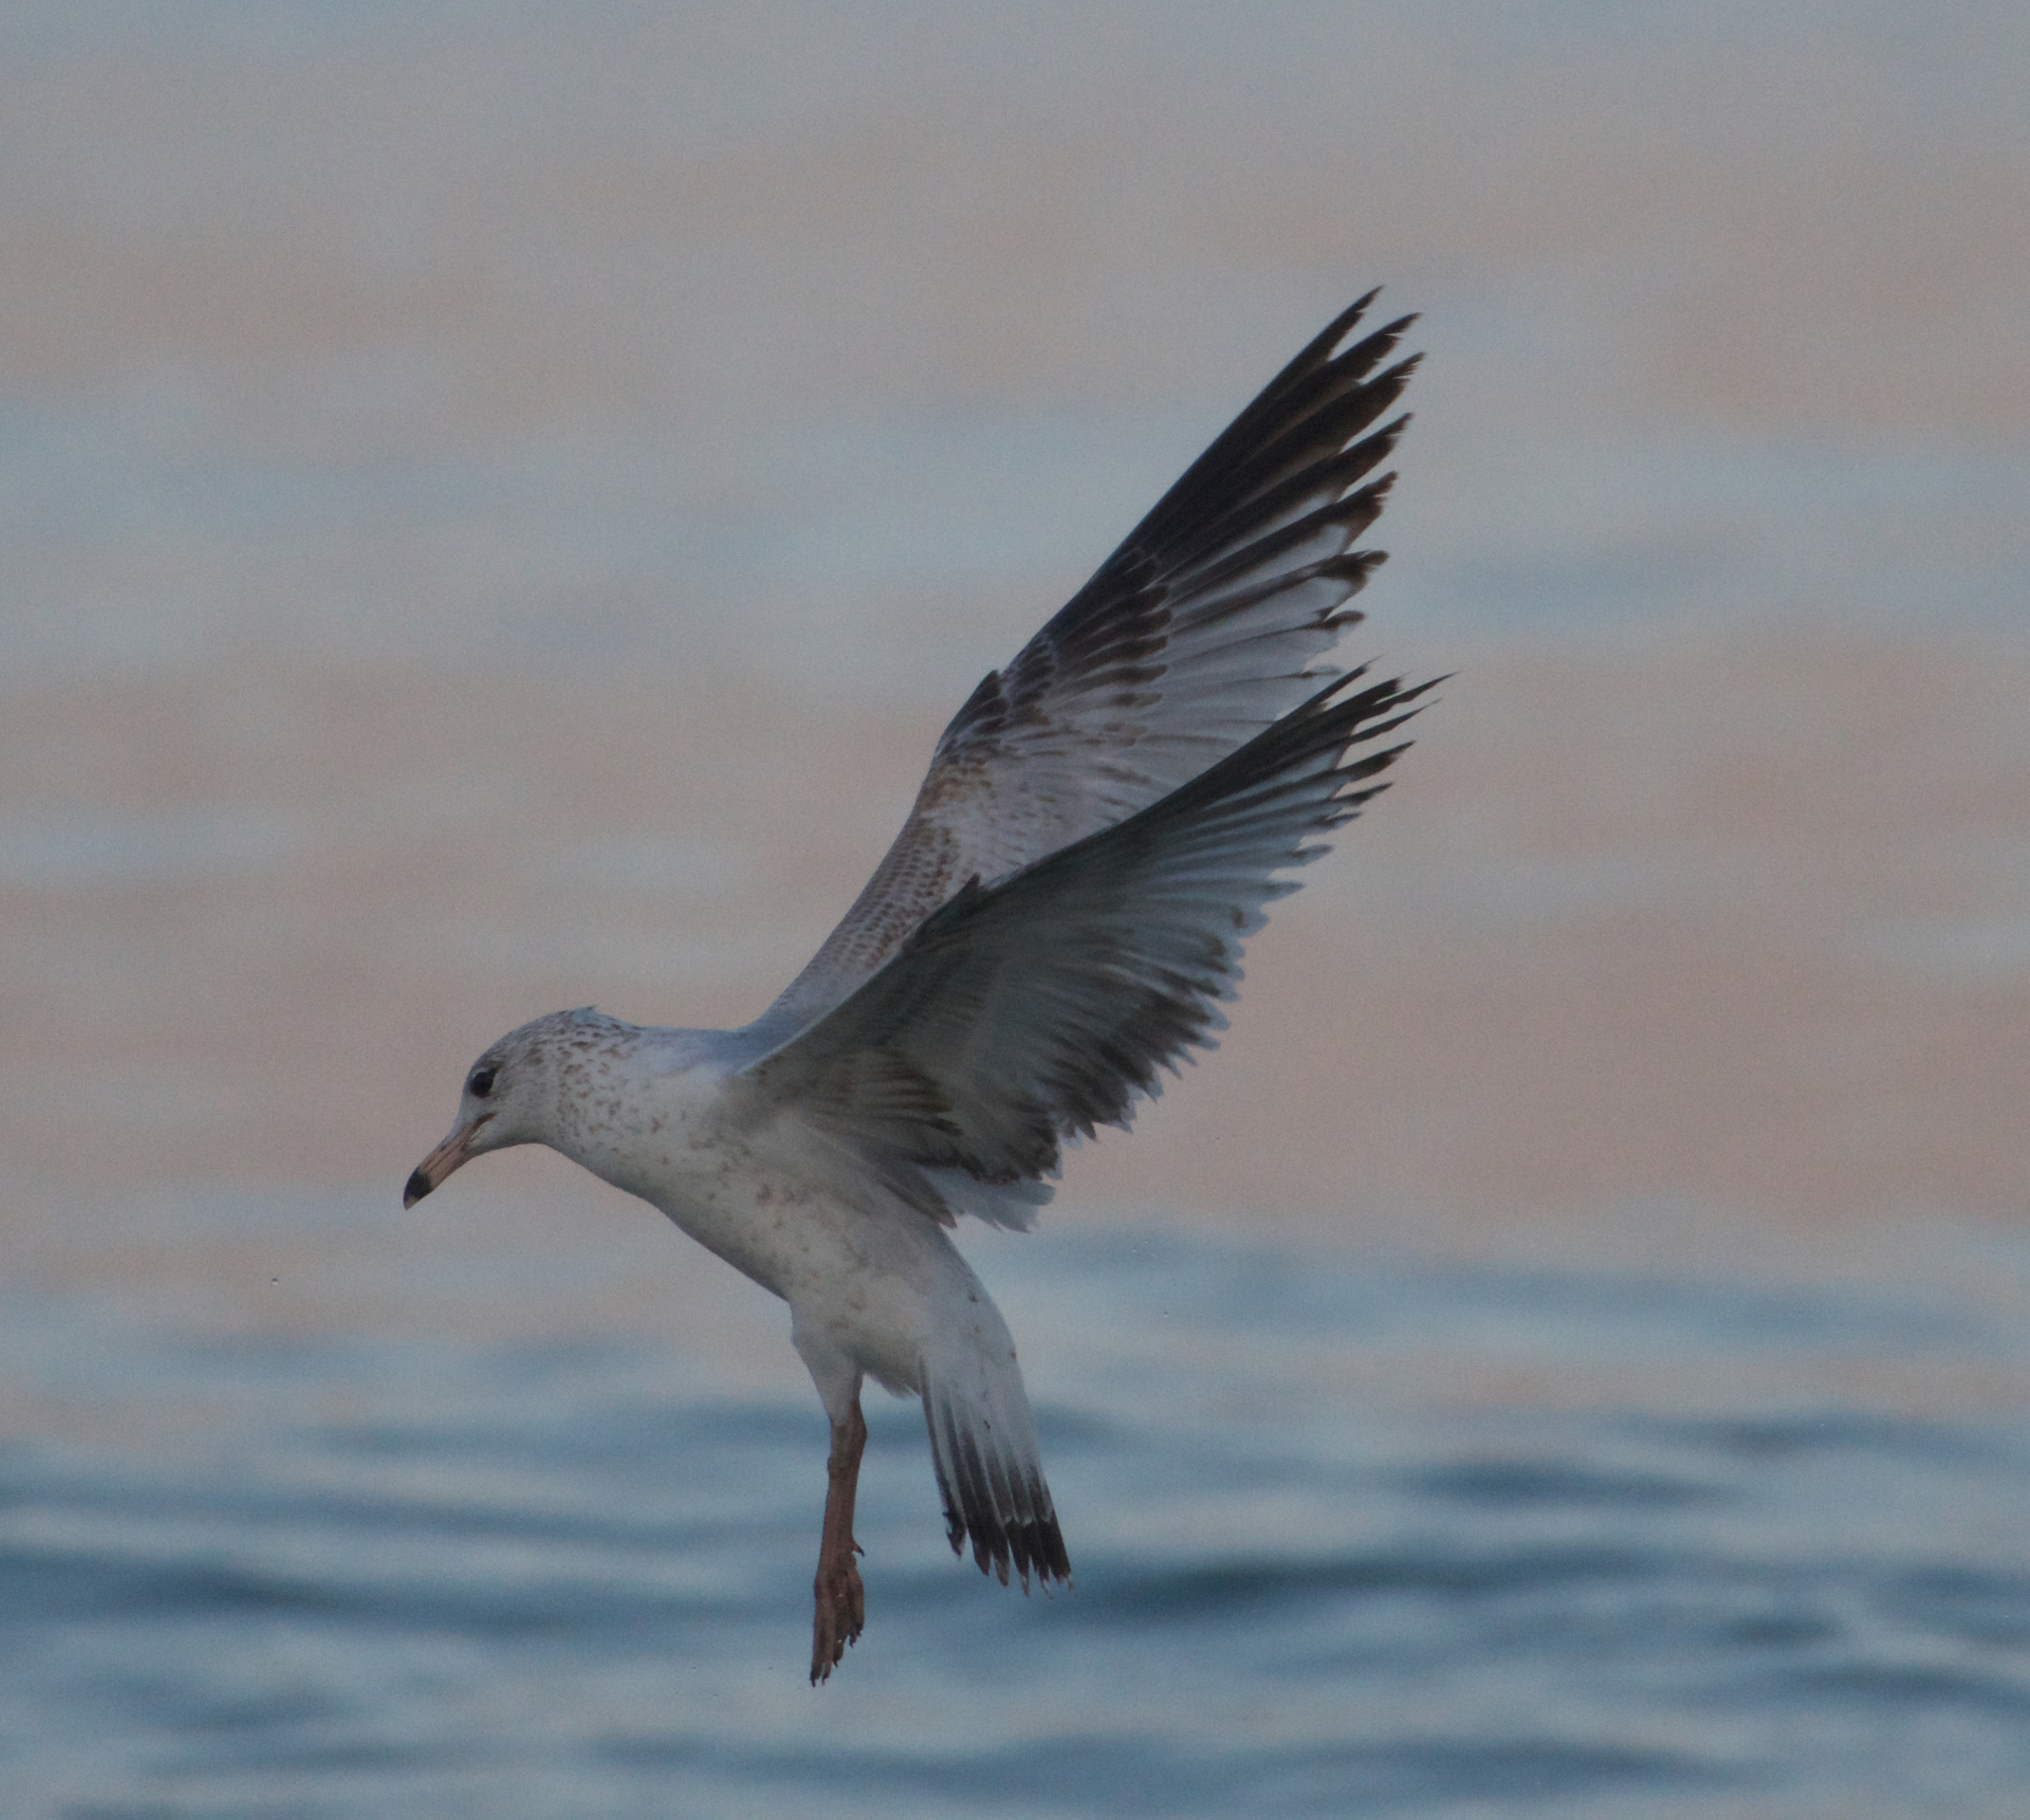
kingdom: Animalia
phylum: Chordata
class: Aves
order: Charadriiformes
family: Laridae
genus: Larus
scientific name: Larus delawarensis
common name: Ring-billed gull
